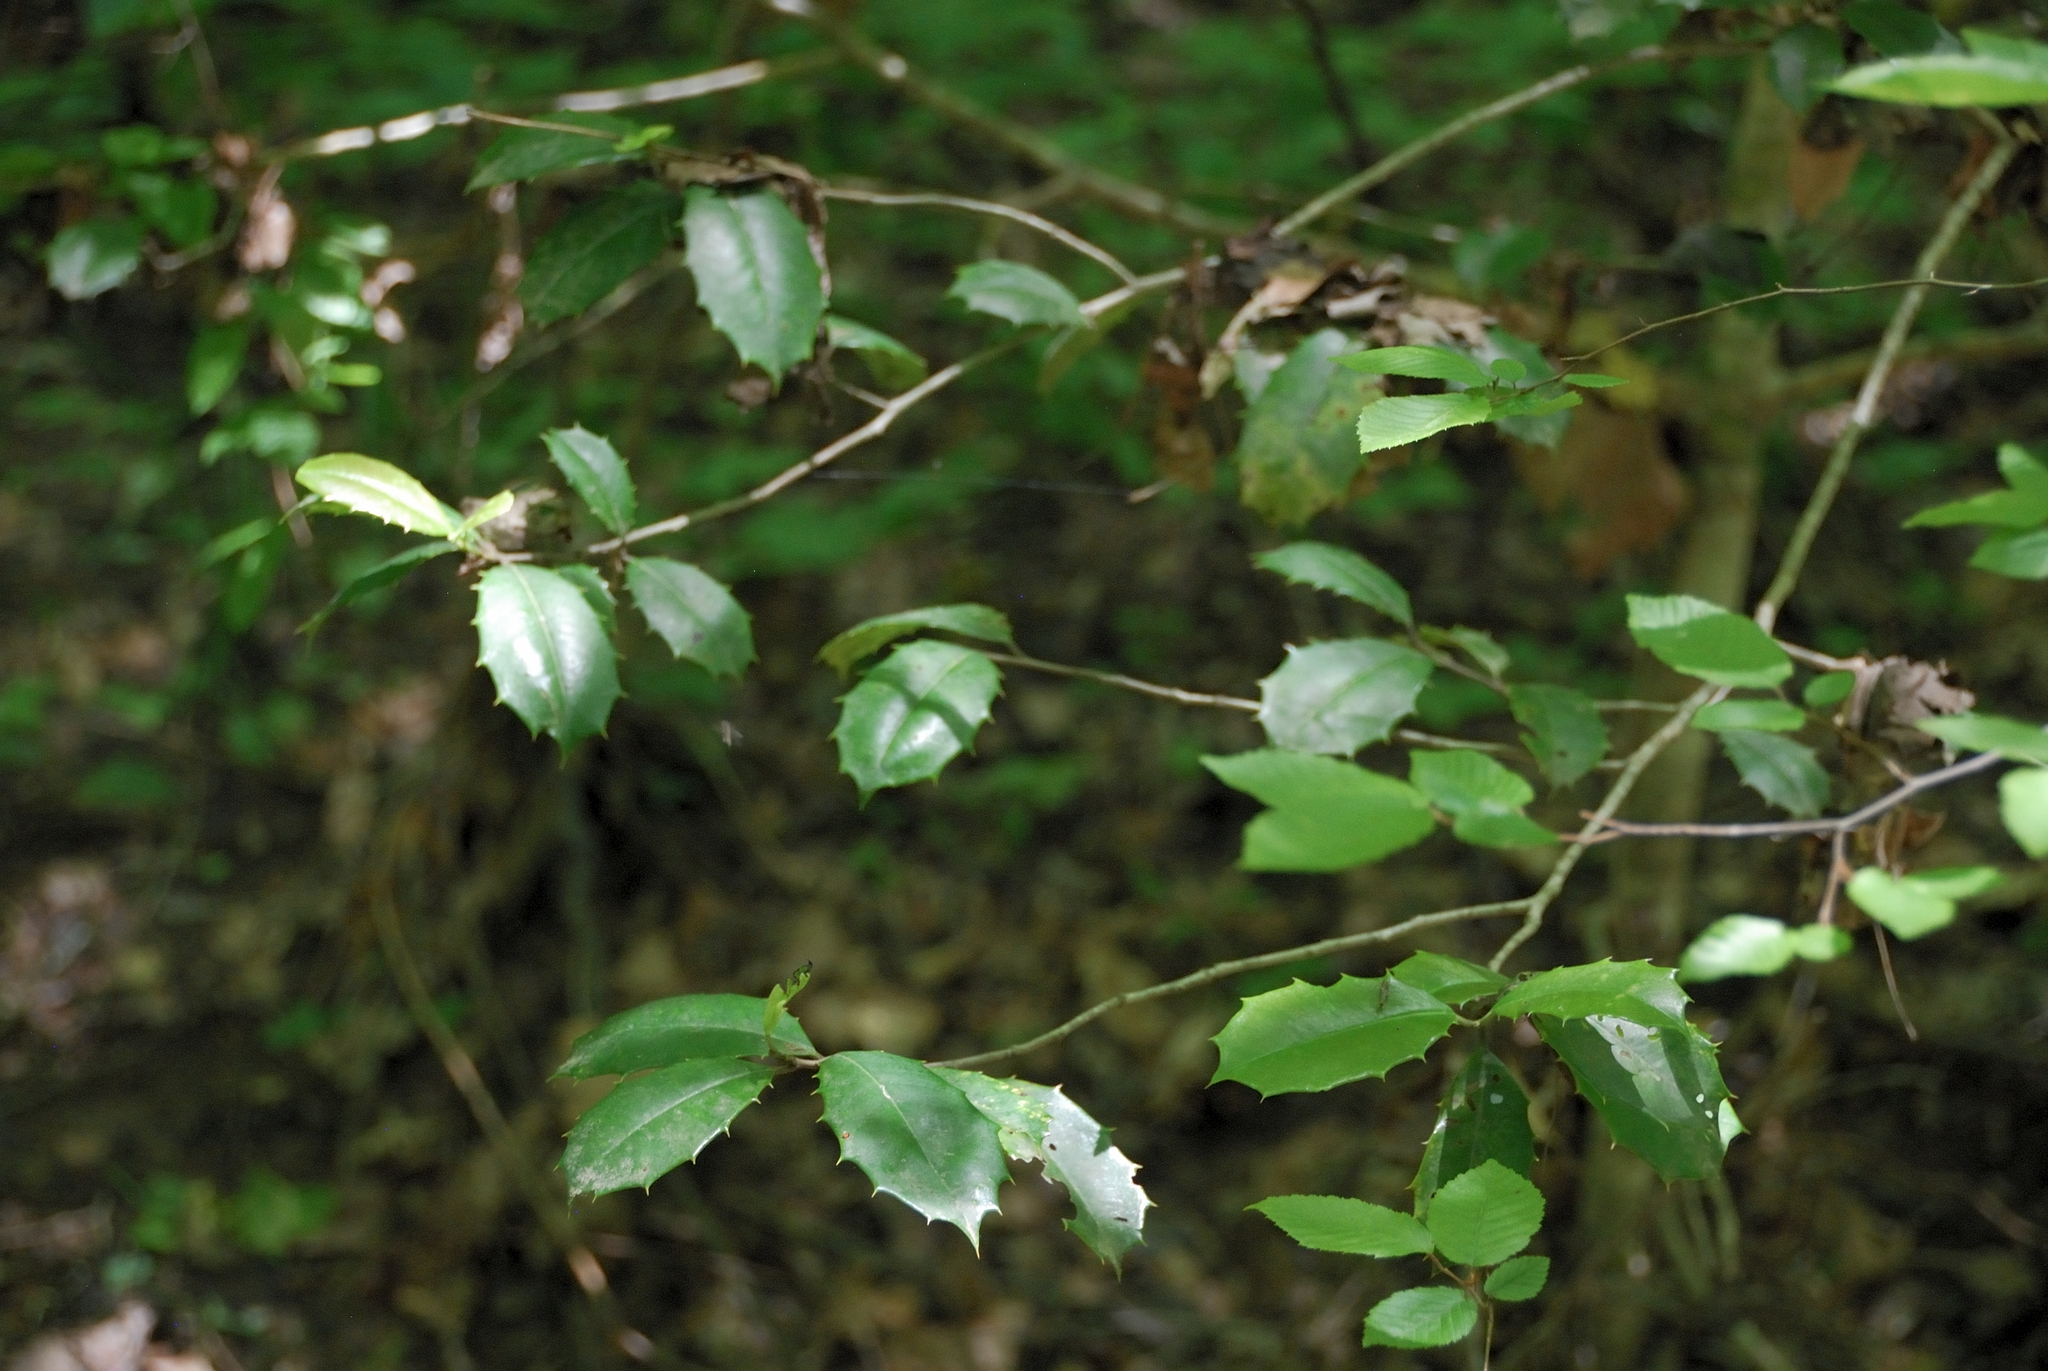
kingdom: Plantae
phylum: Tracheophyta
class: Magnoliopsida
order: Aquifoliales
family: Aquifoliaceae
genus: Ilex
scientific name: Ilex opaca
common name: American holly
